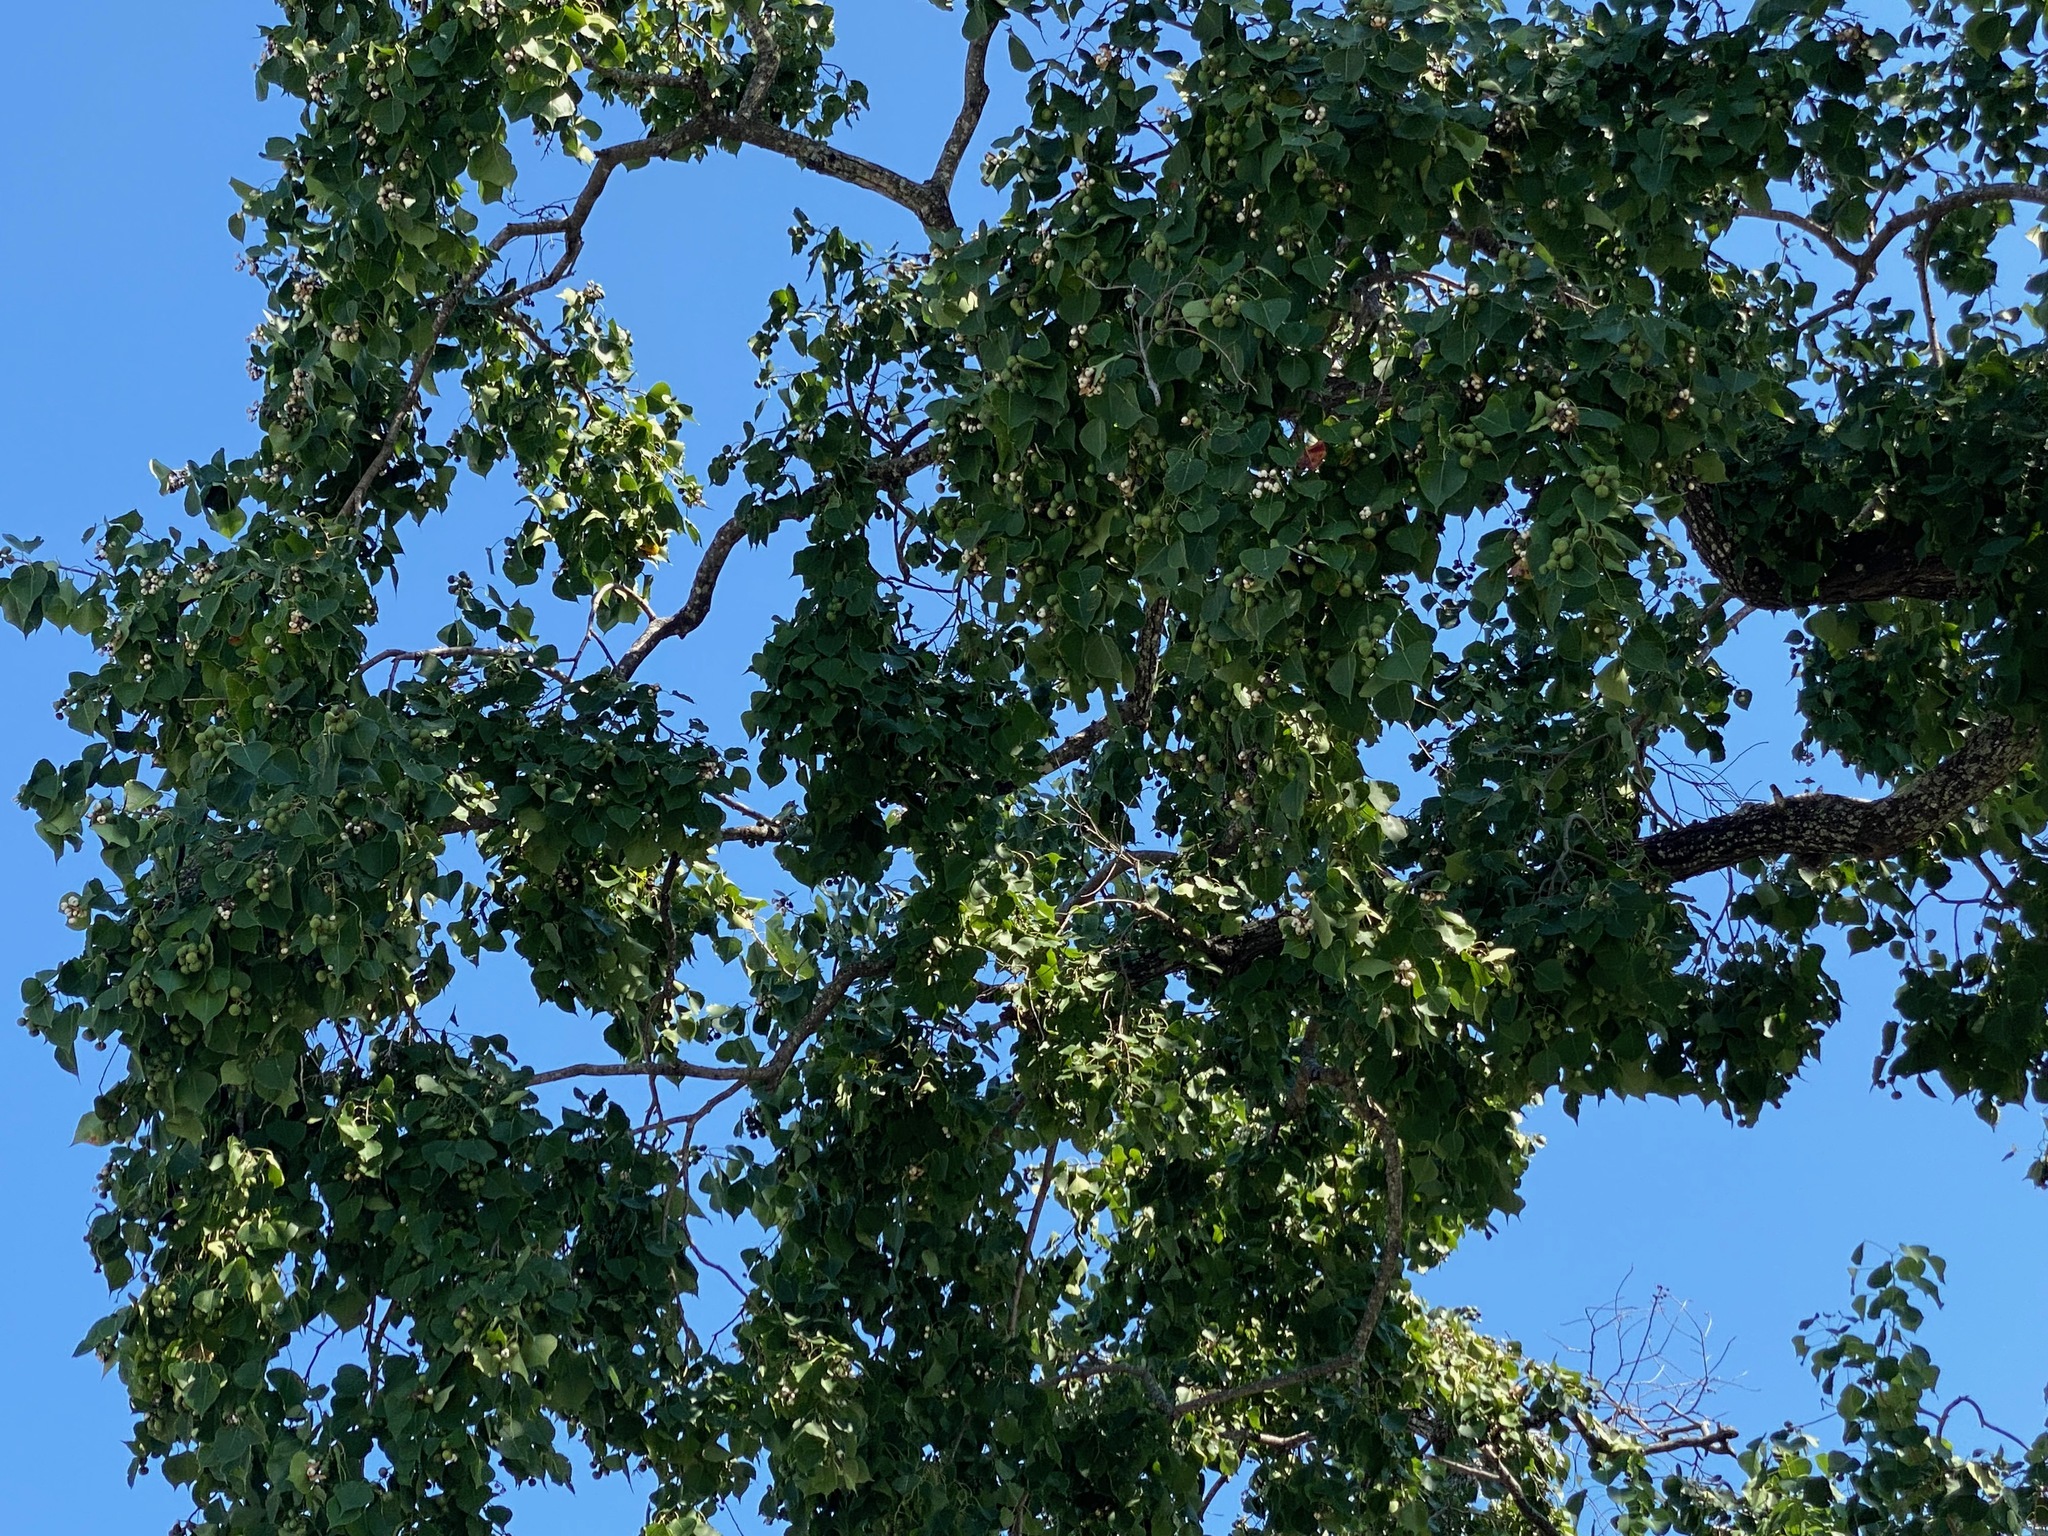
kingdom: Plantae
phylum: Tracheophyta
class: Magnoliopsida
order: Malpighiales
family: Euphorbiaceae
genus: Triadica
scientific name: Triadica sebifera
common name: Chinese tallow
